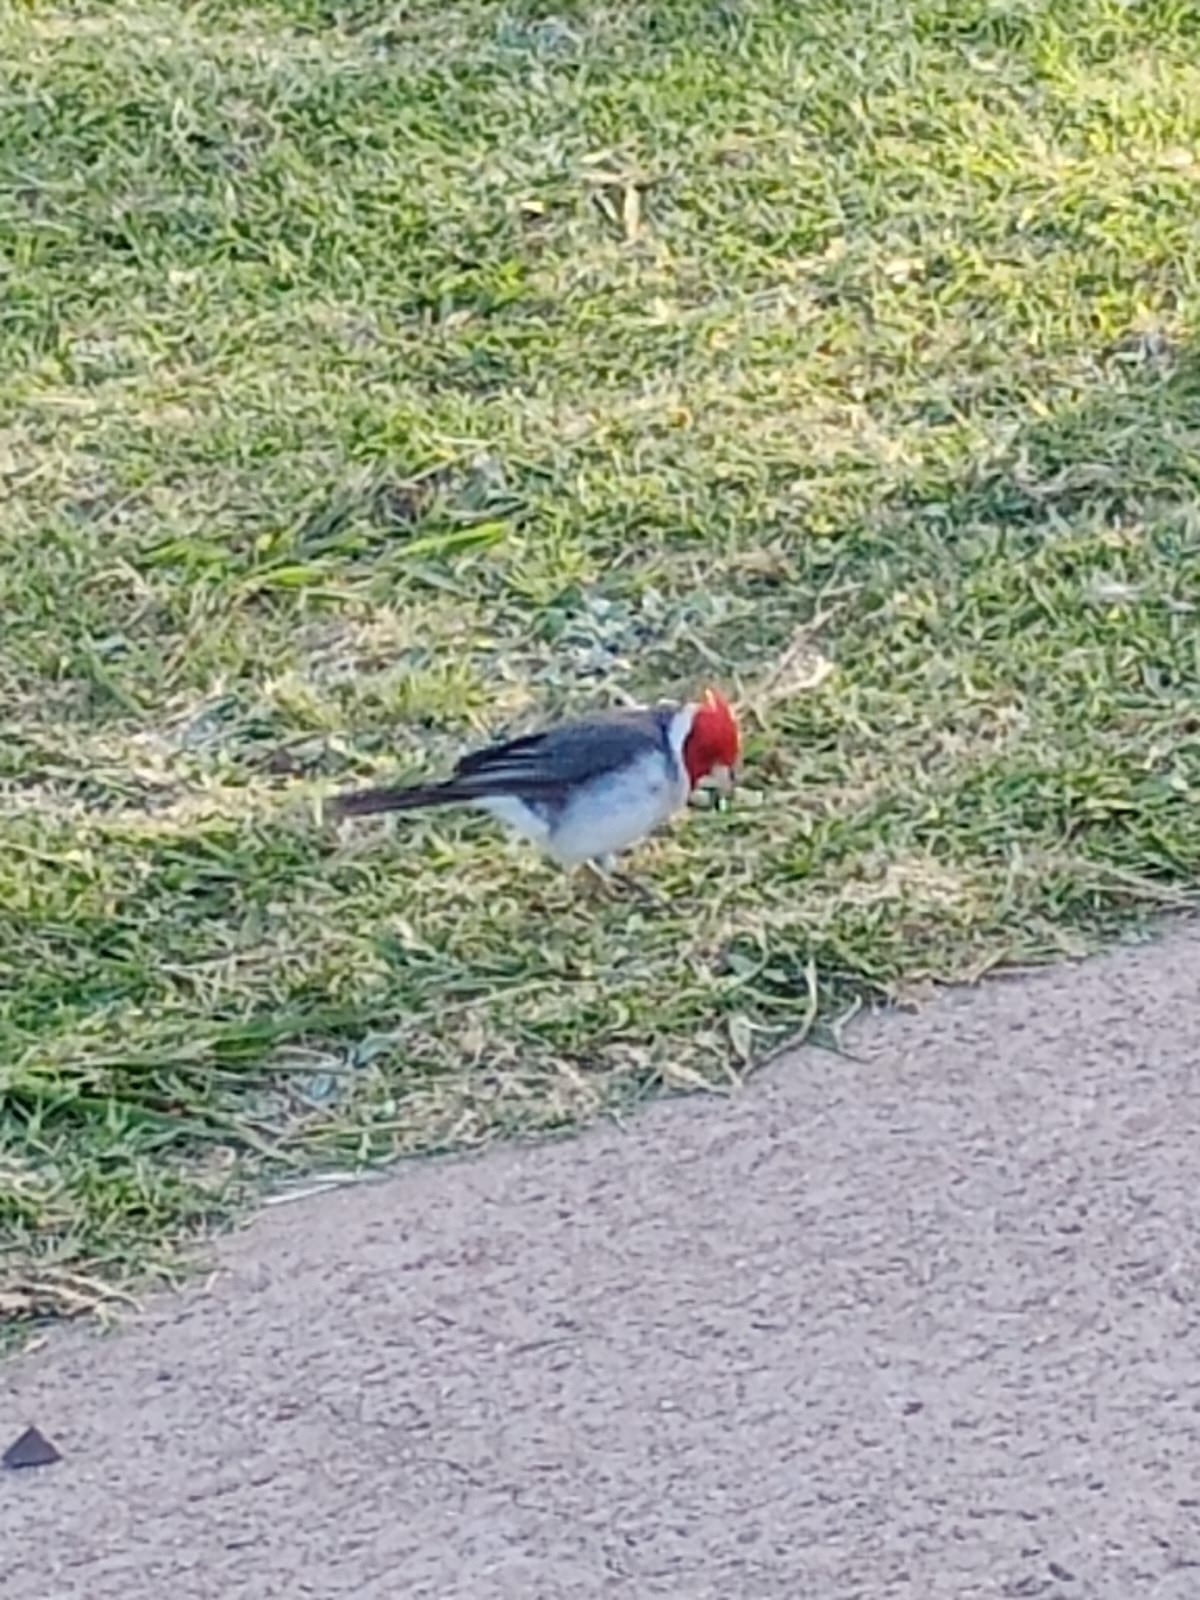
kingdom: Animalia
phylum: Chordata
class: Aves
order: Passeriformes
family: Thraupidae
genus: Paroaria
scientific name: Paroaria coronata
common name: Red-crested cardinal
